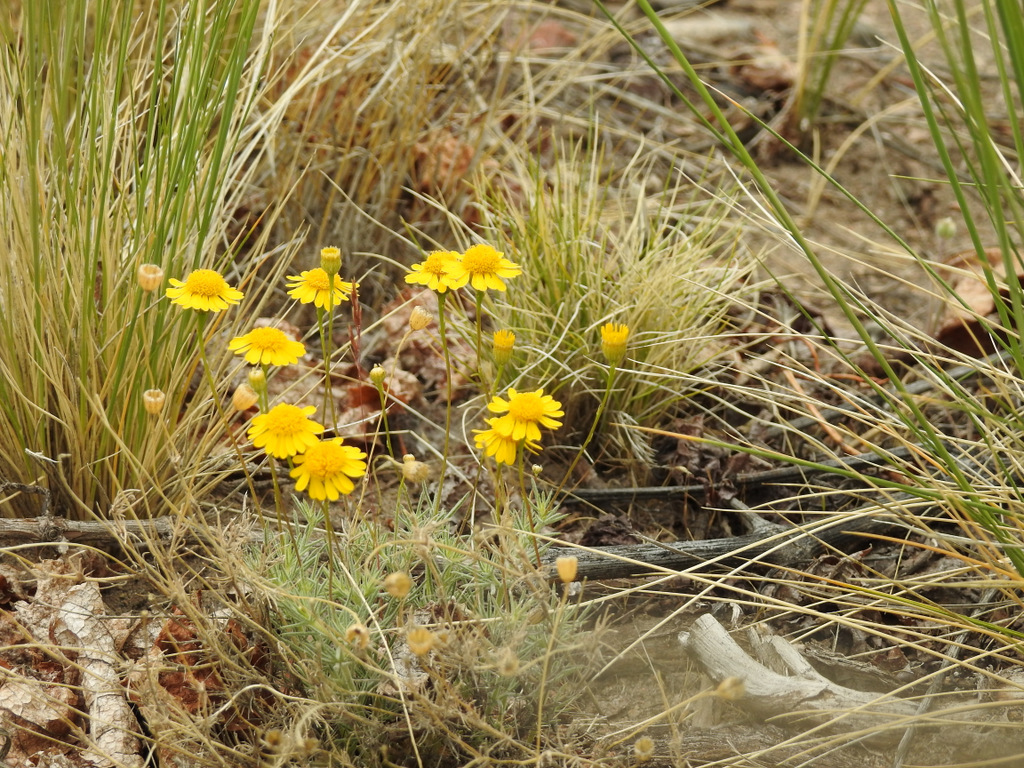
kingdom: Plantae
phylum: Tracheophyta
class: Magnoliopsida
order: Asterales
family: Asteraceae
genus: Thymophylla
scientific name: Thymophylla pentachaeta
